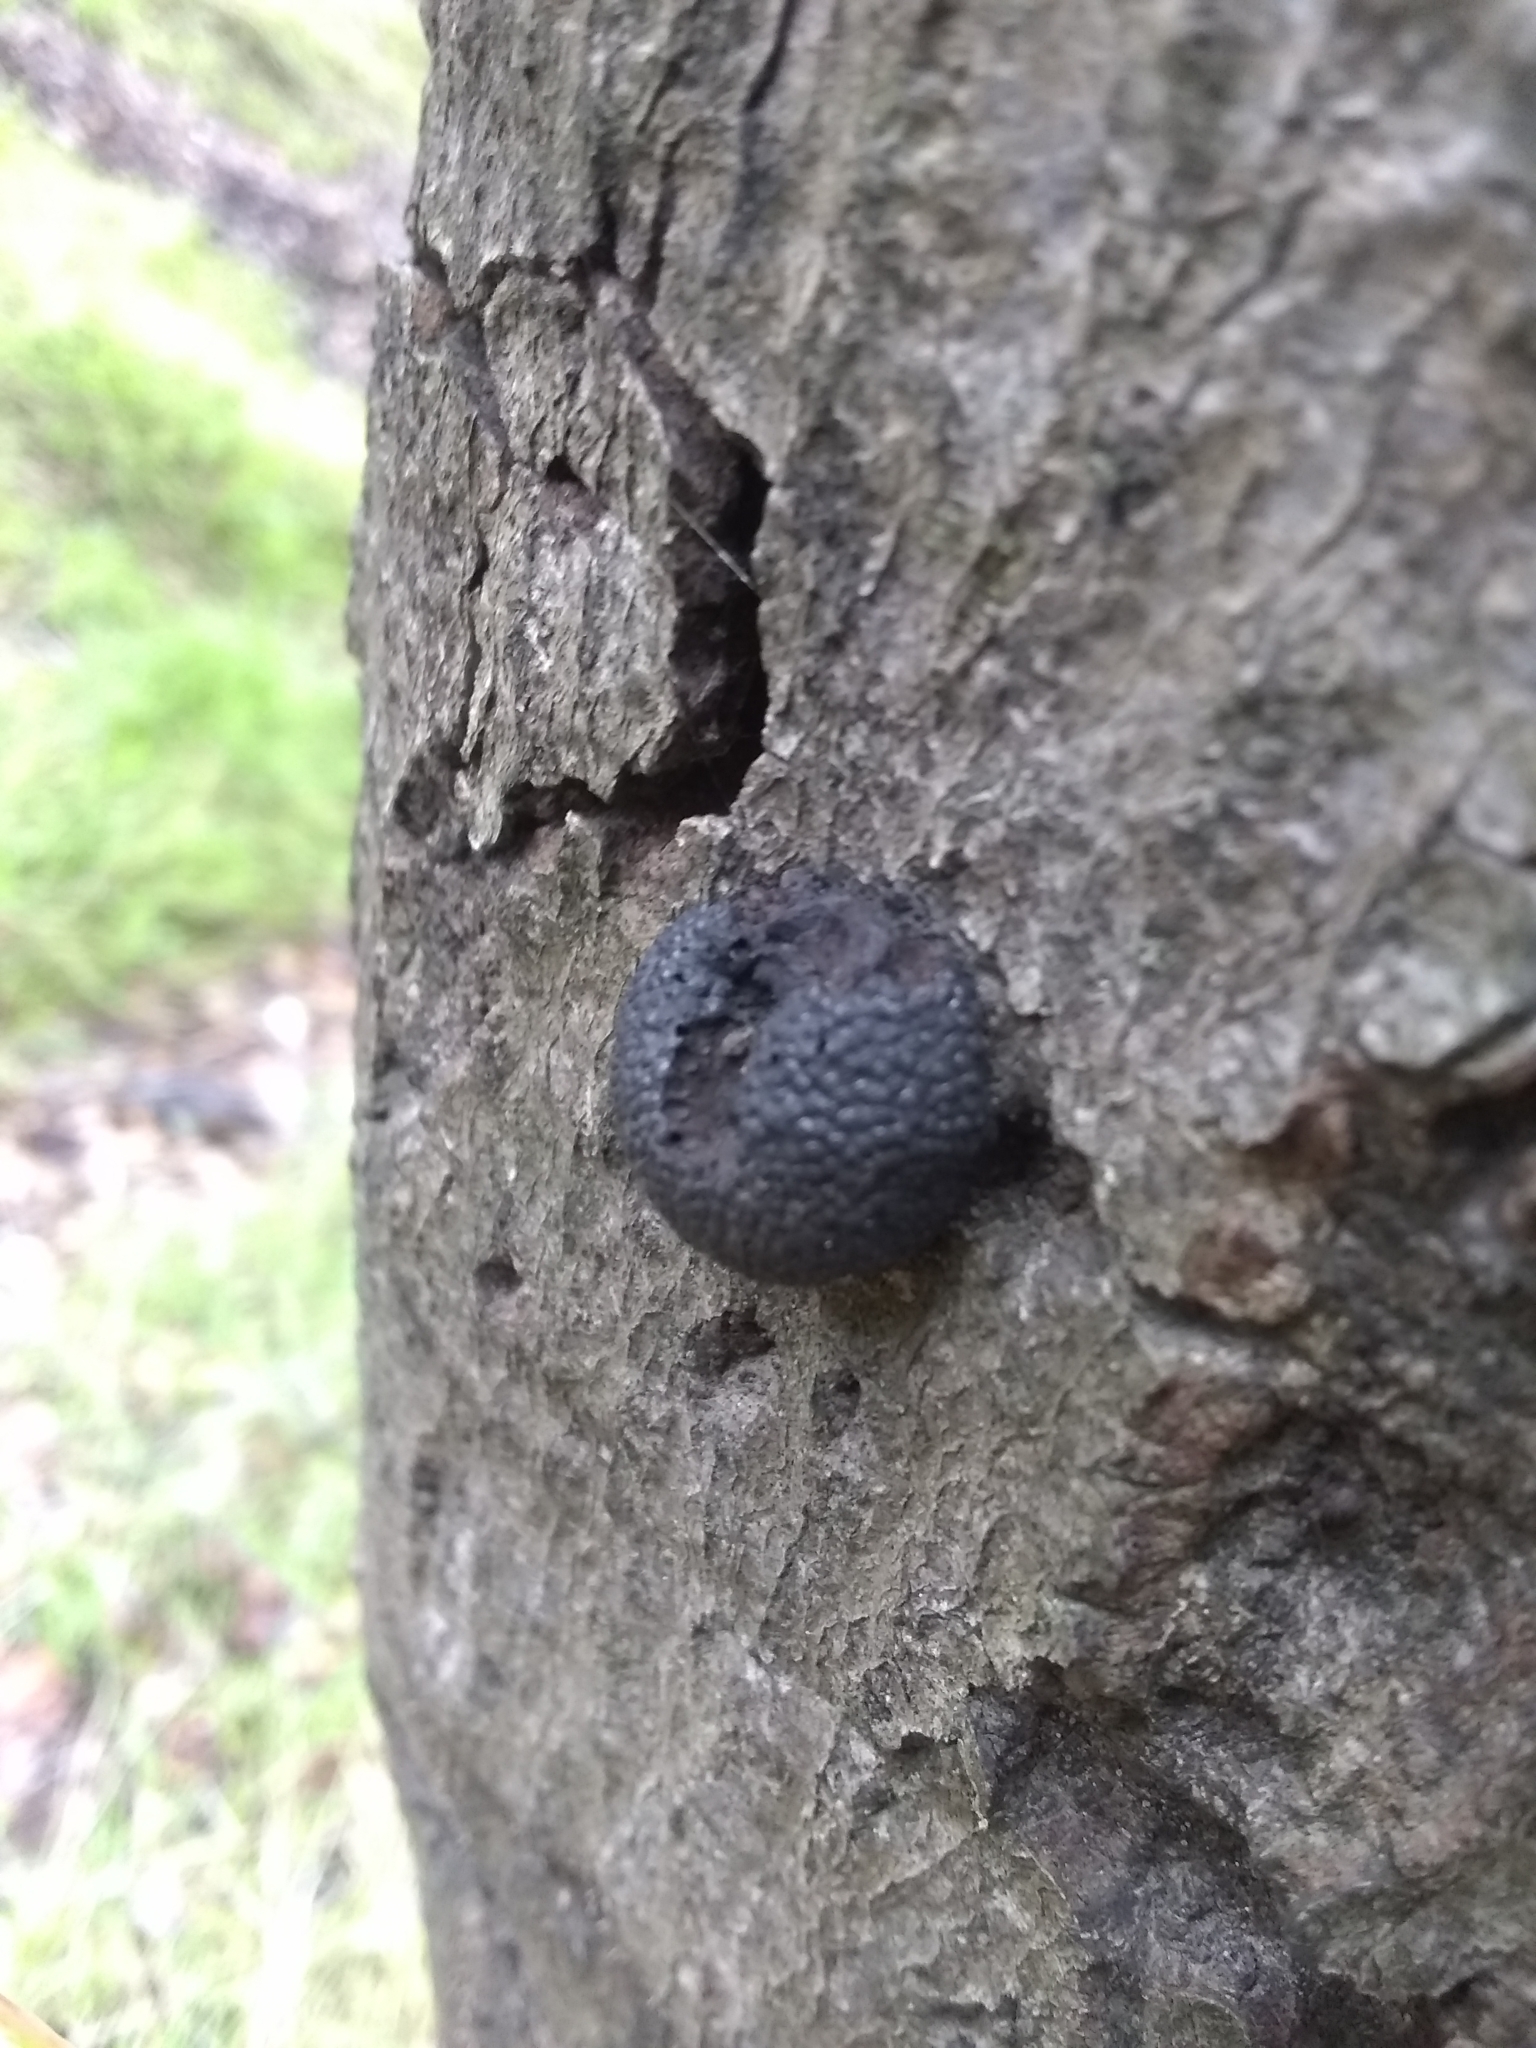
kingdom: Fungi
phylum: Ascomycota
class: Sordariomycetes
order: Xylariales
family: Hypoxylaceae
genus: Annulohypoxylon
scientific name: Annulohypoxylon thouarsianum
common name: Cramp balls
